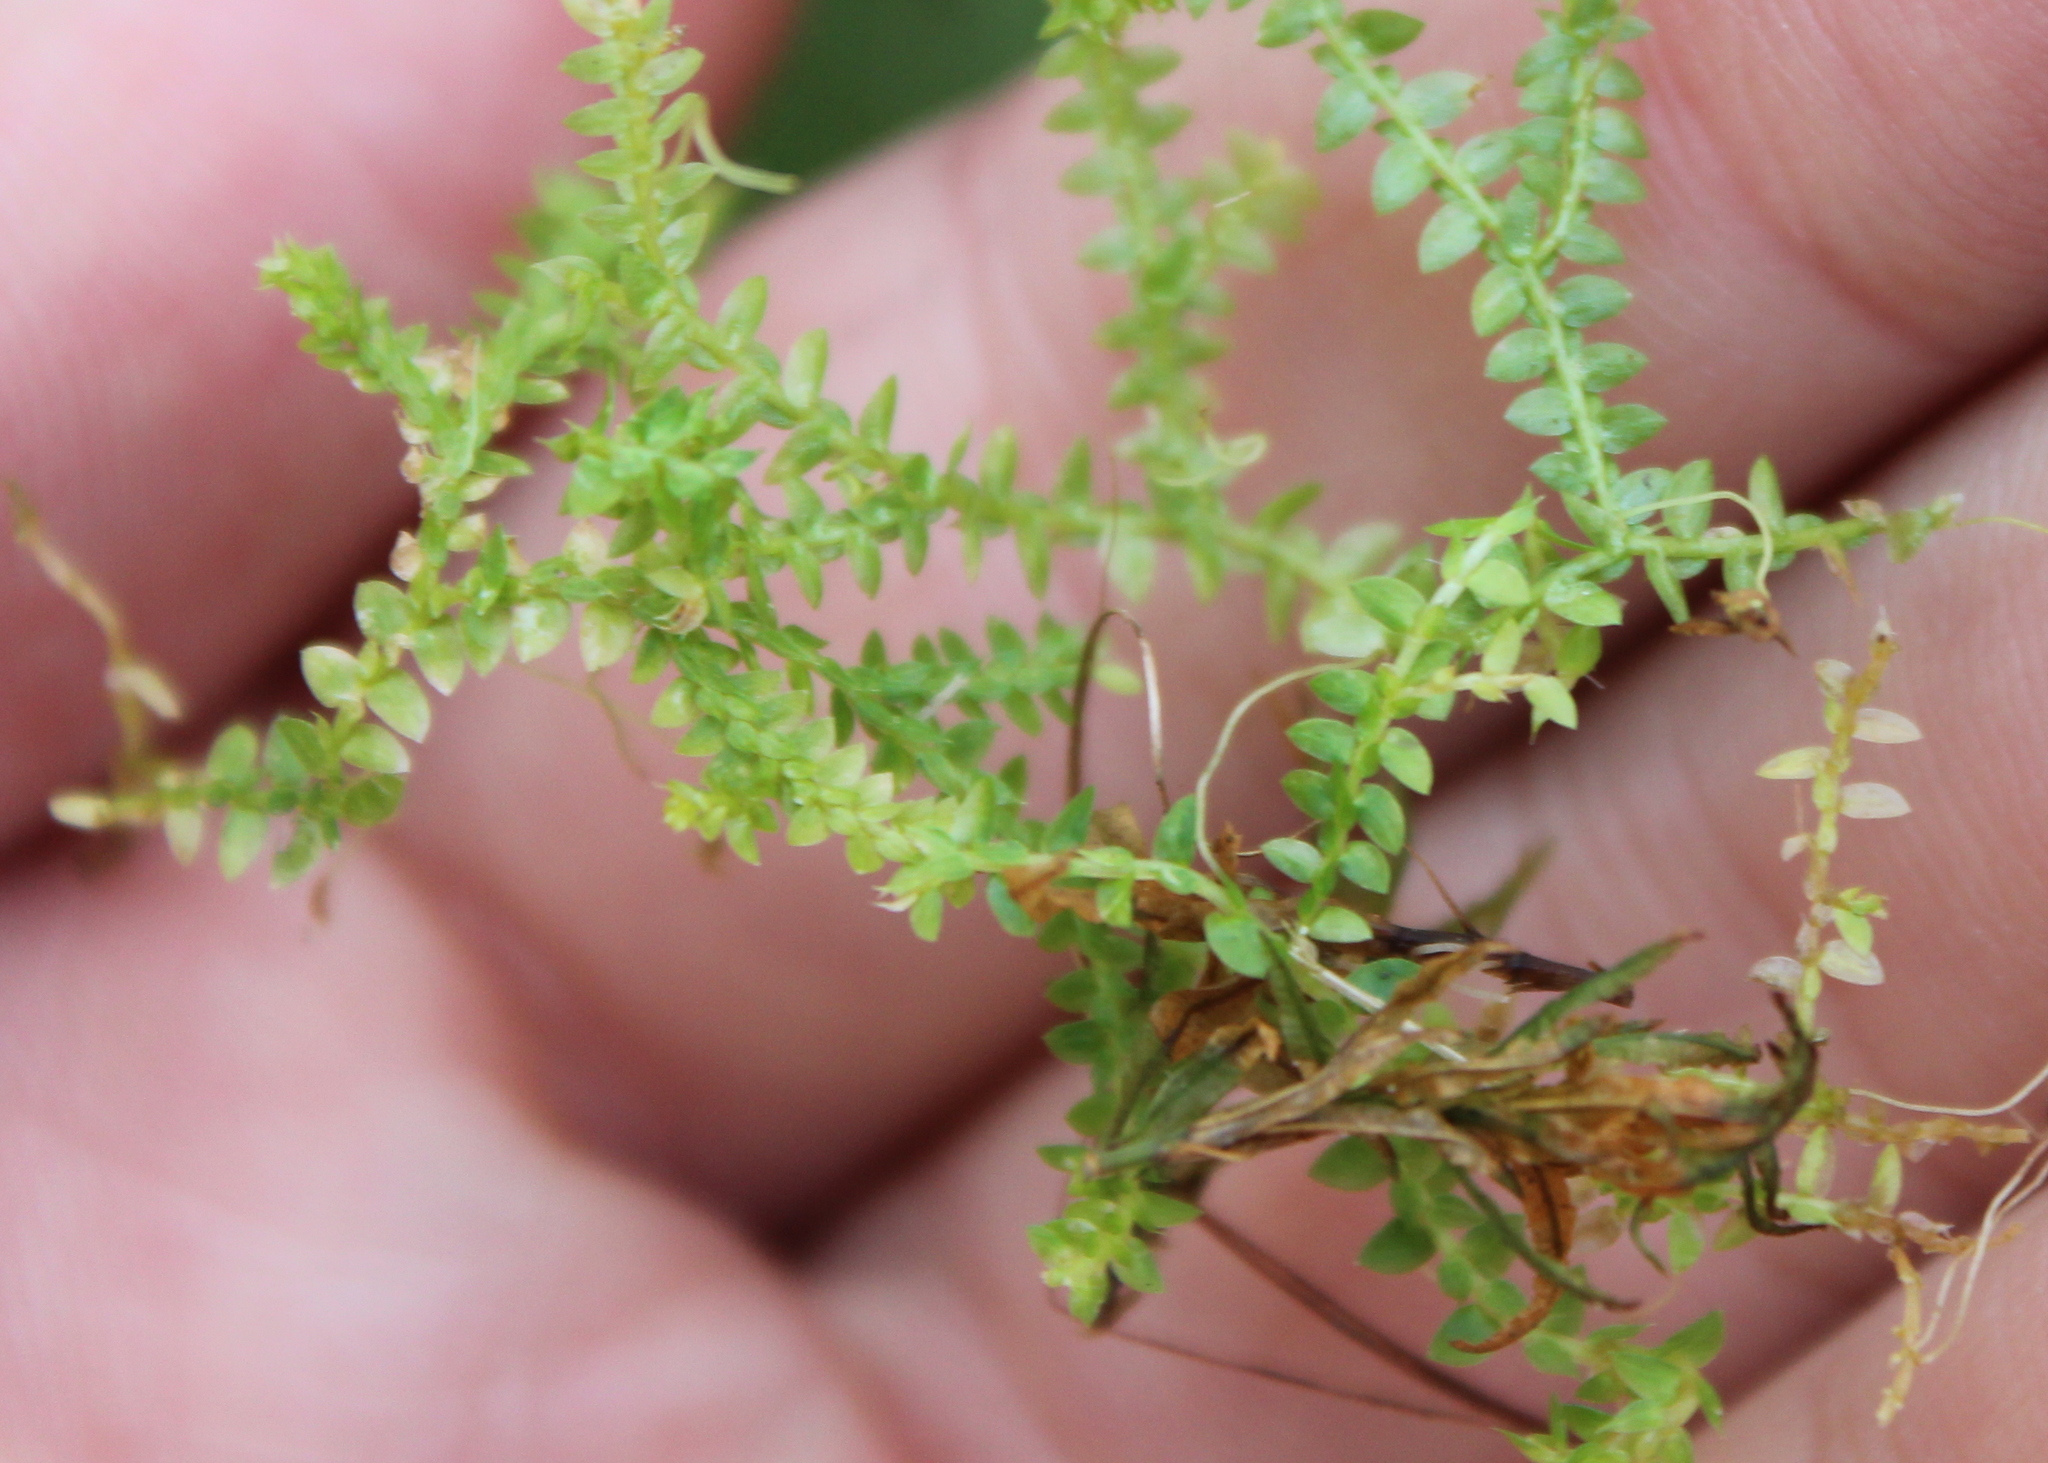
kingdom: Plantae
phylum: Tracheophyta
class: Lycopodiopsida
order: Selaginellales
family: Selaginellaceae
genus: Selaginella
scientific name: Selaginella apoda
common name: Creeping spikemoss
